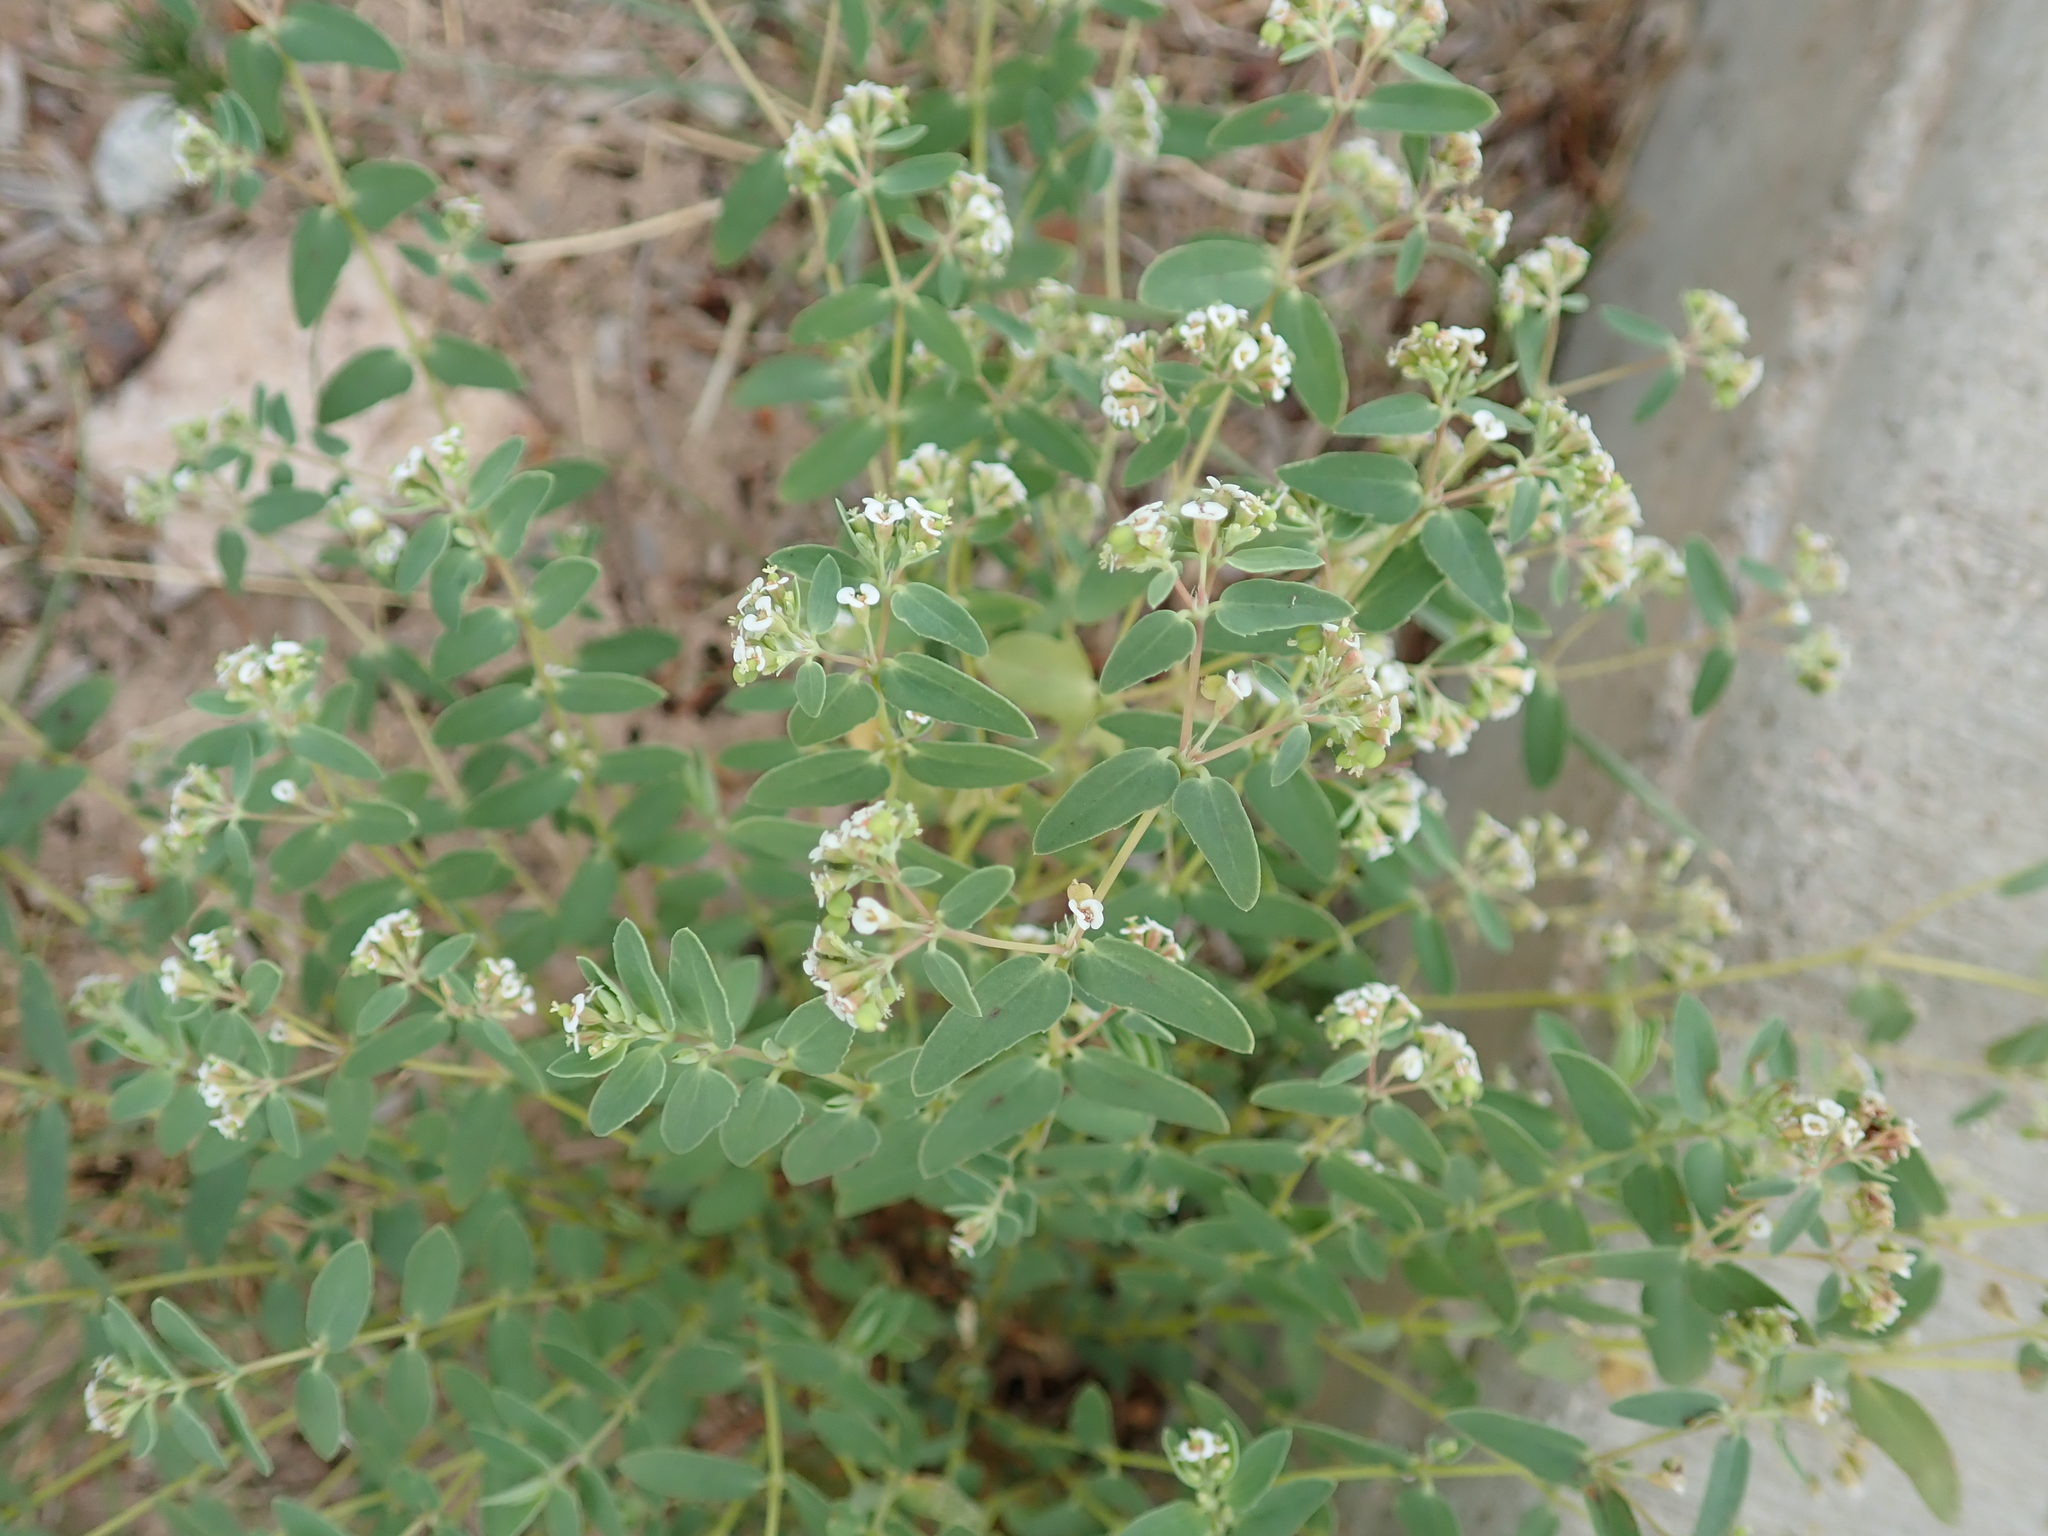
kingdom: Plantae
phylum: Tracheophyta
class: Magnoliopsida
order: Malpighiales
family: Euphorbiaceae
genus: Euphorbia
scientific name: Euphorbia capitellata
